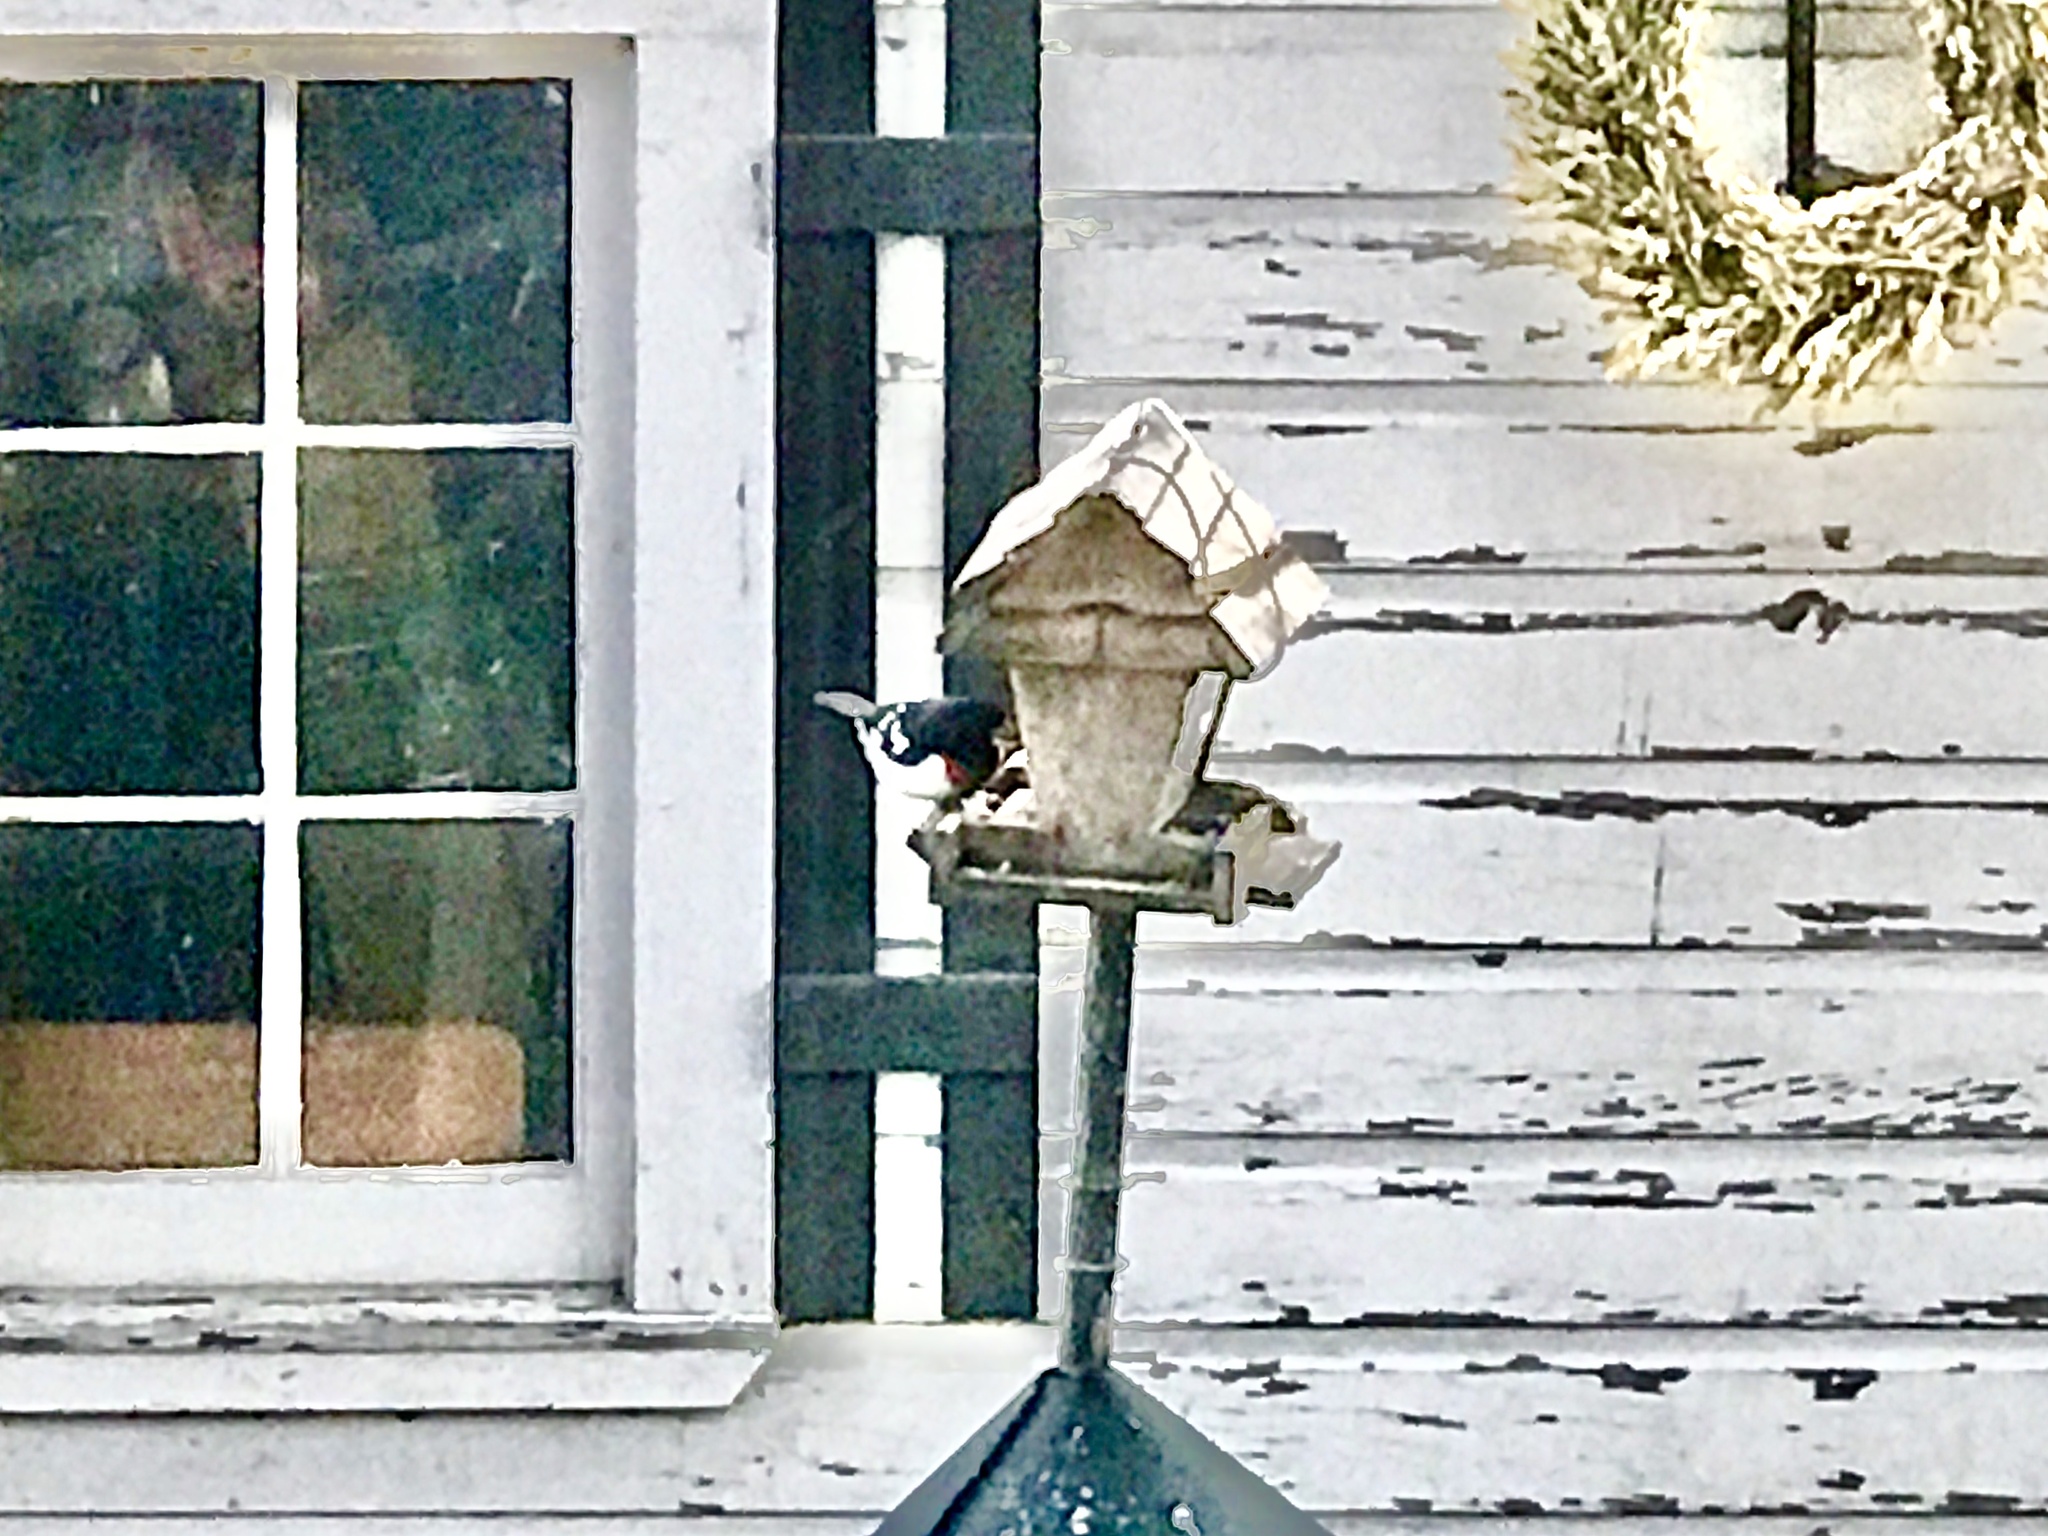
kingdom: Animalia
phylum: Chordata
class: Aves
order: Passeriformes
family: Cardinalidae
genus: Pheucticus
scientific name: Pheucticus ludovicianus
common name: Rose-breasted grosbeak
